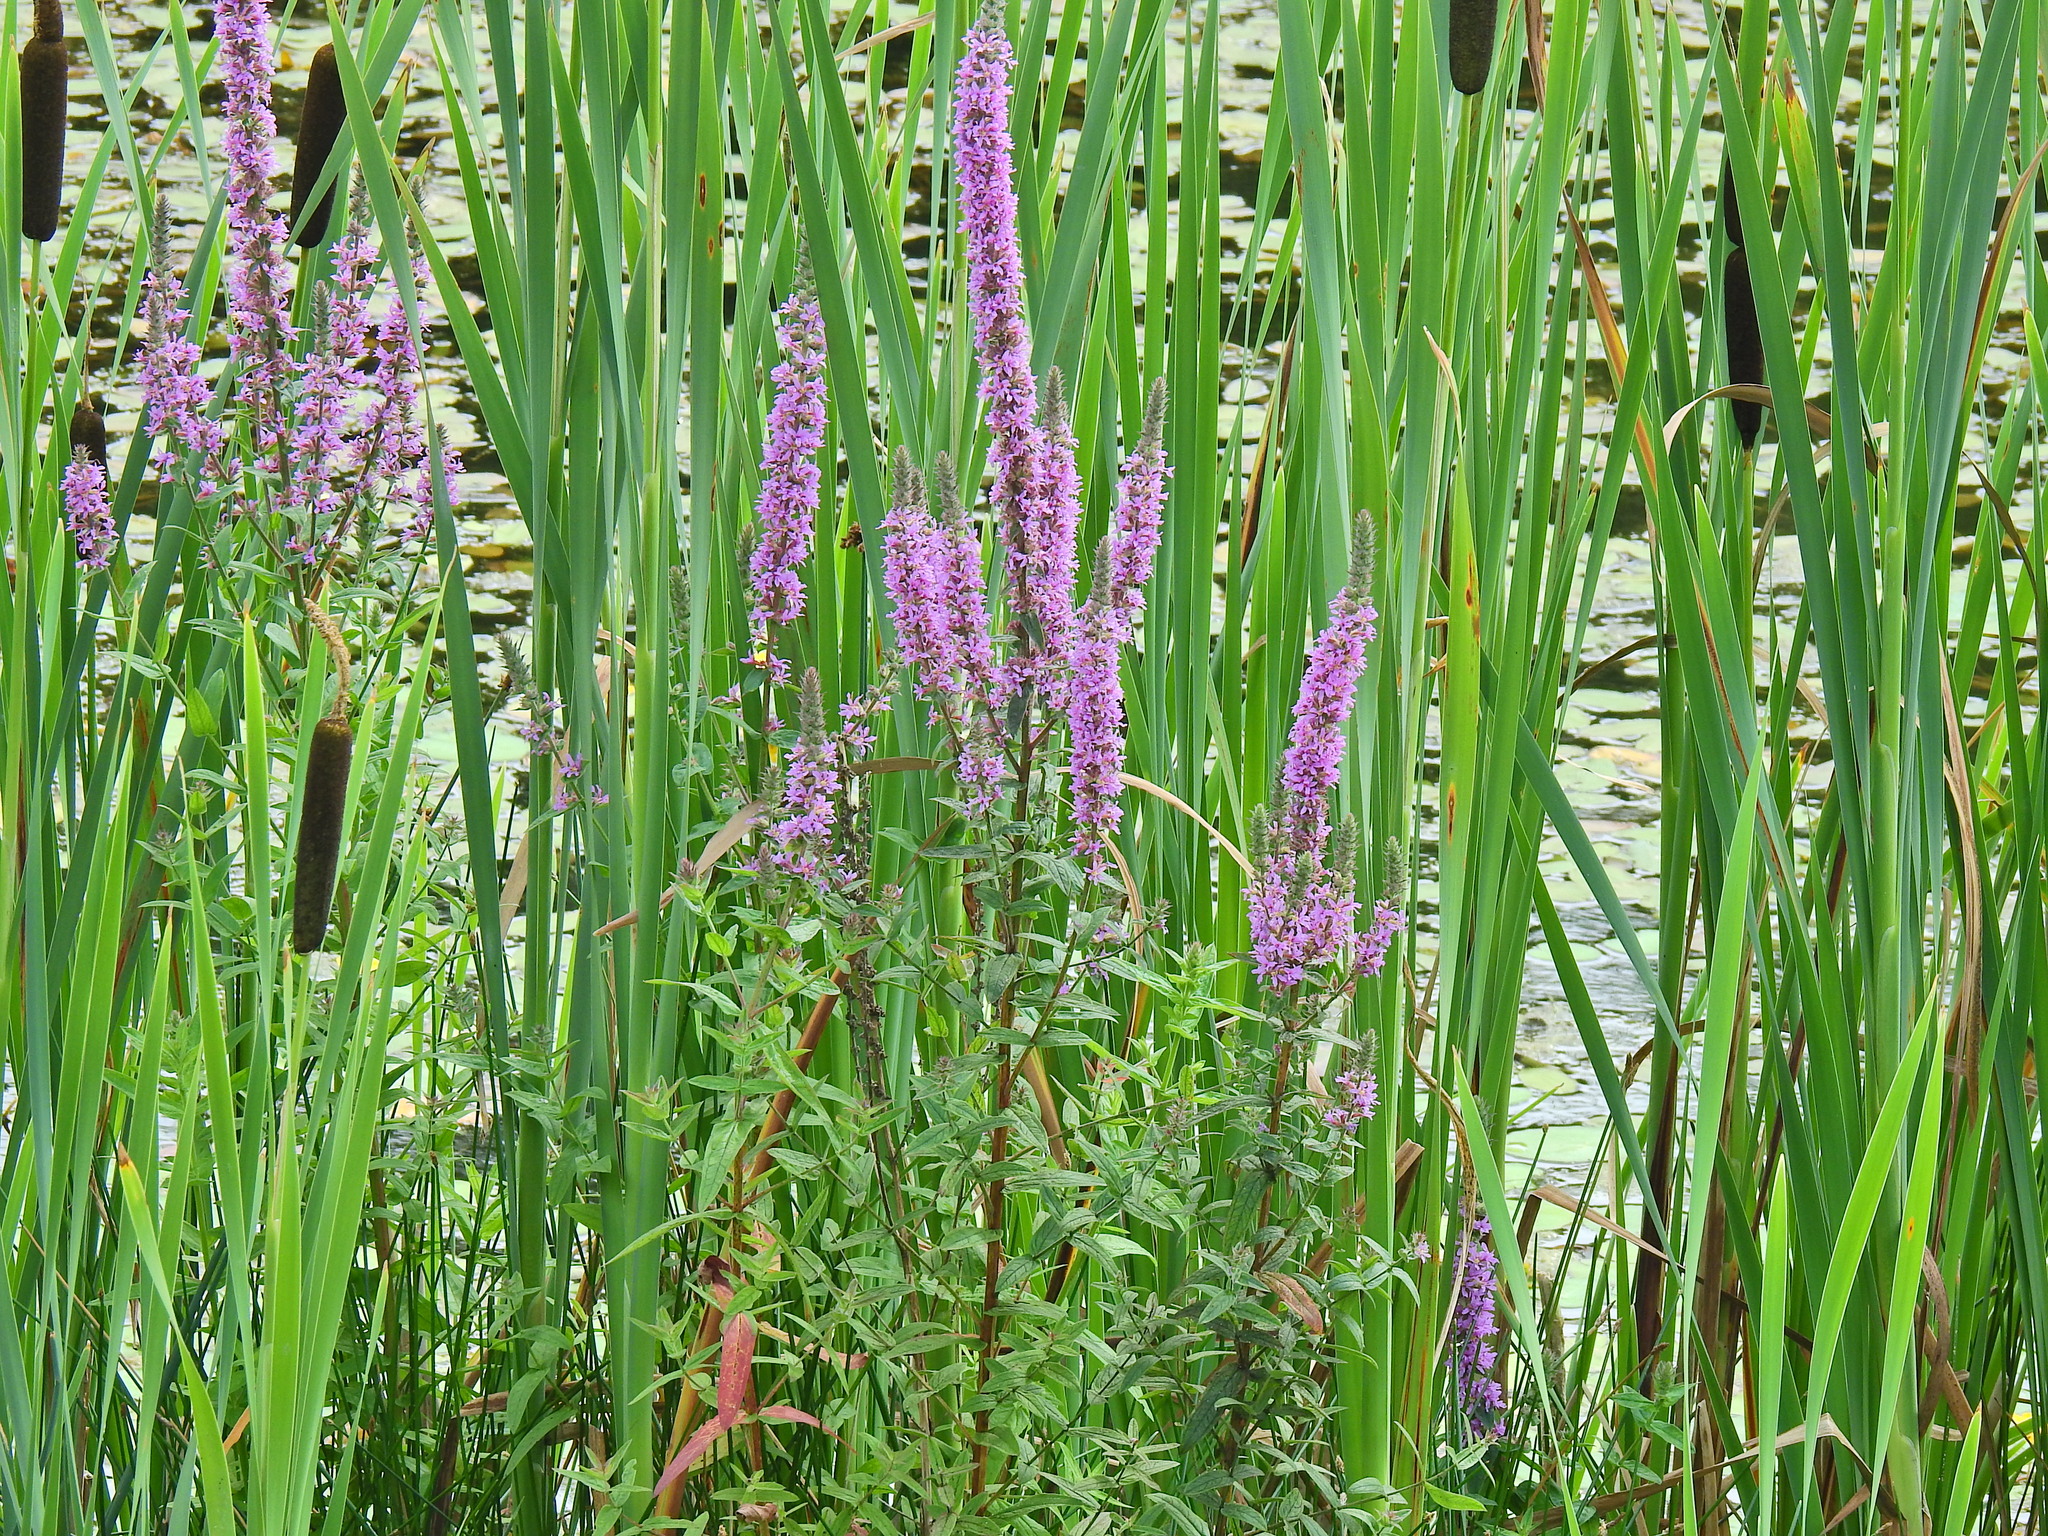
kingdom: Plantae
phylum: Tracheophyta
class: Magnoliopsida
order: Myrtales
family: Lythraceae
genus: Lythrum
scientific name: Lythrum salicaria
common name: Purple loosestrife
